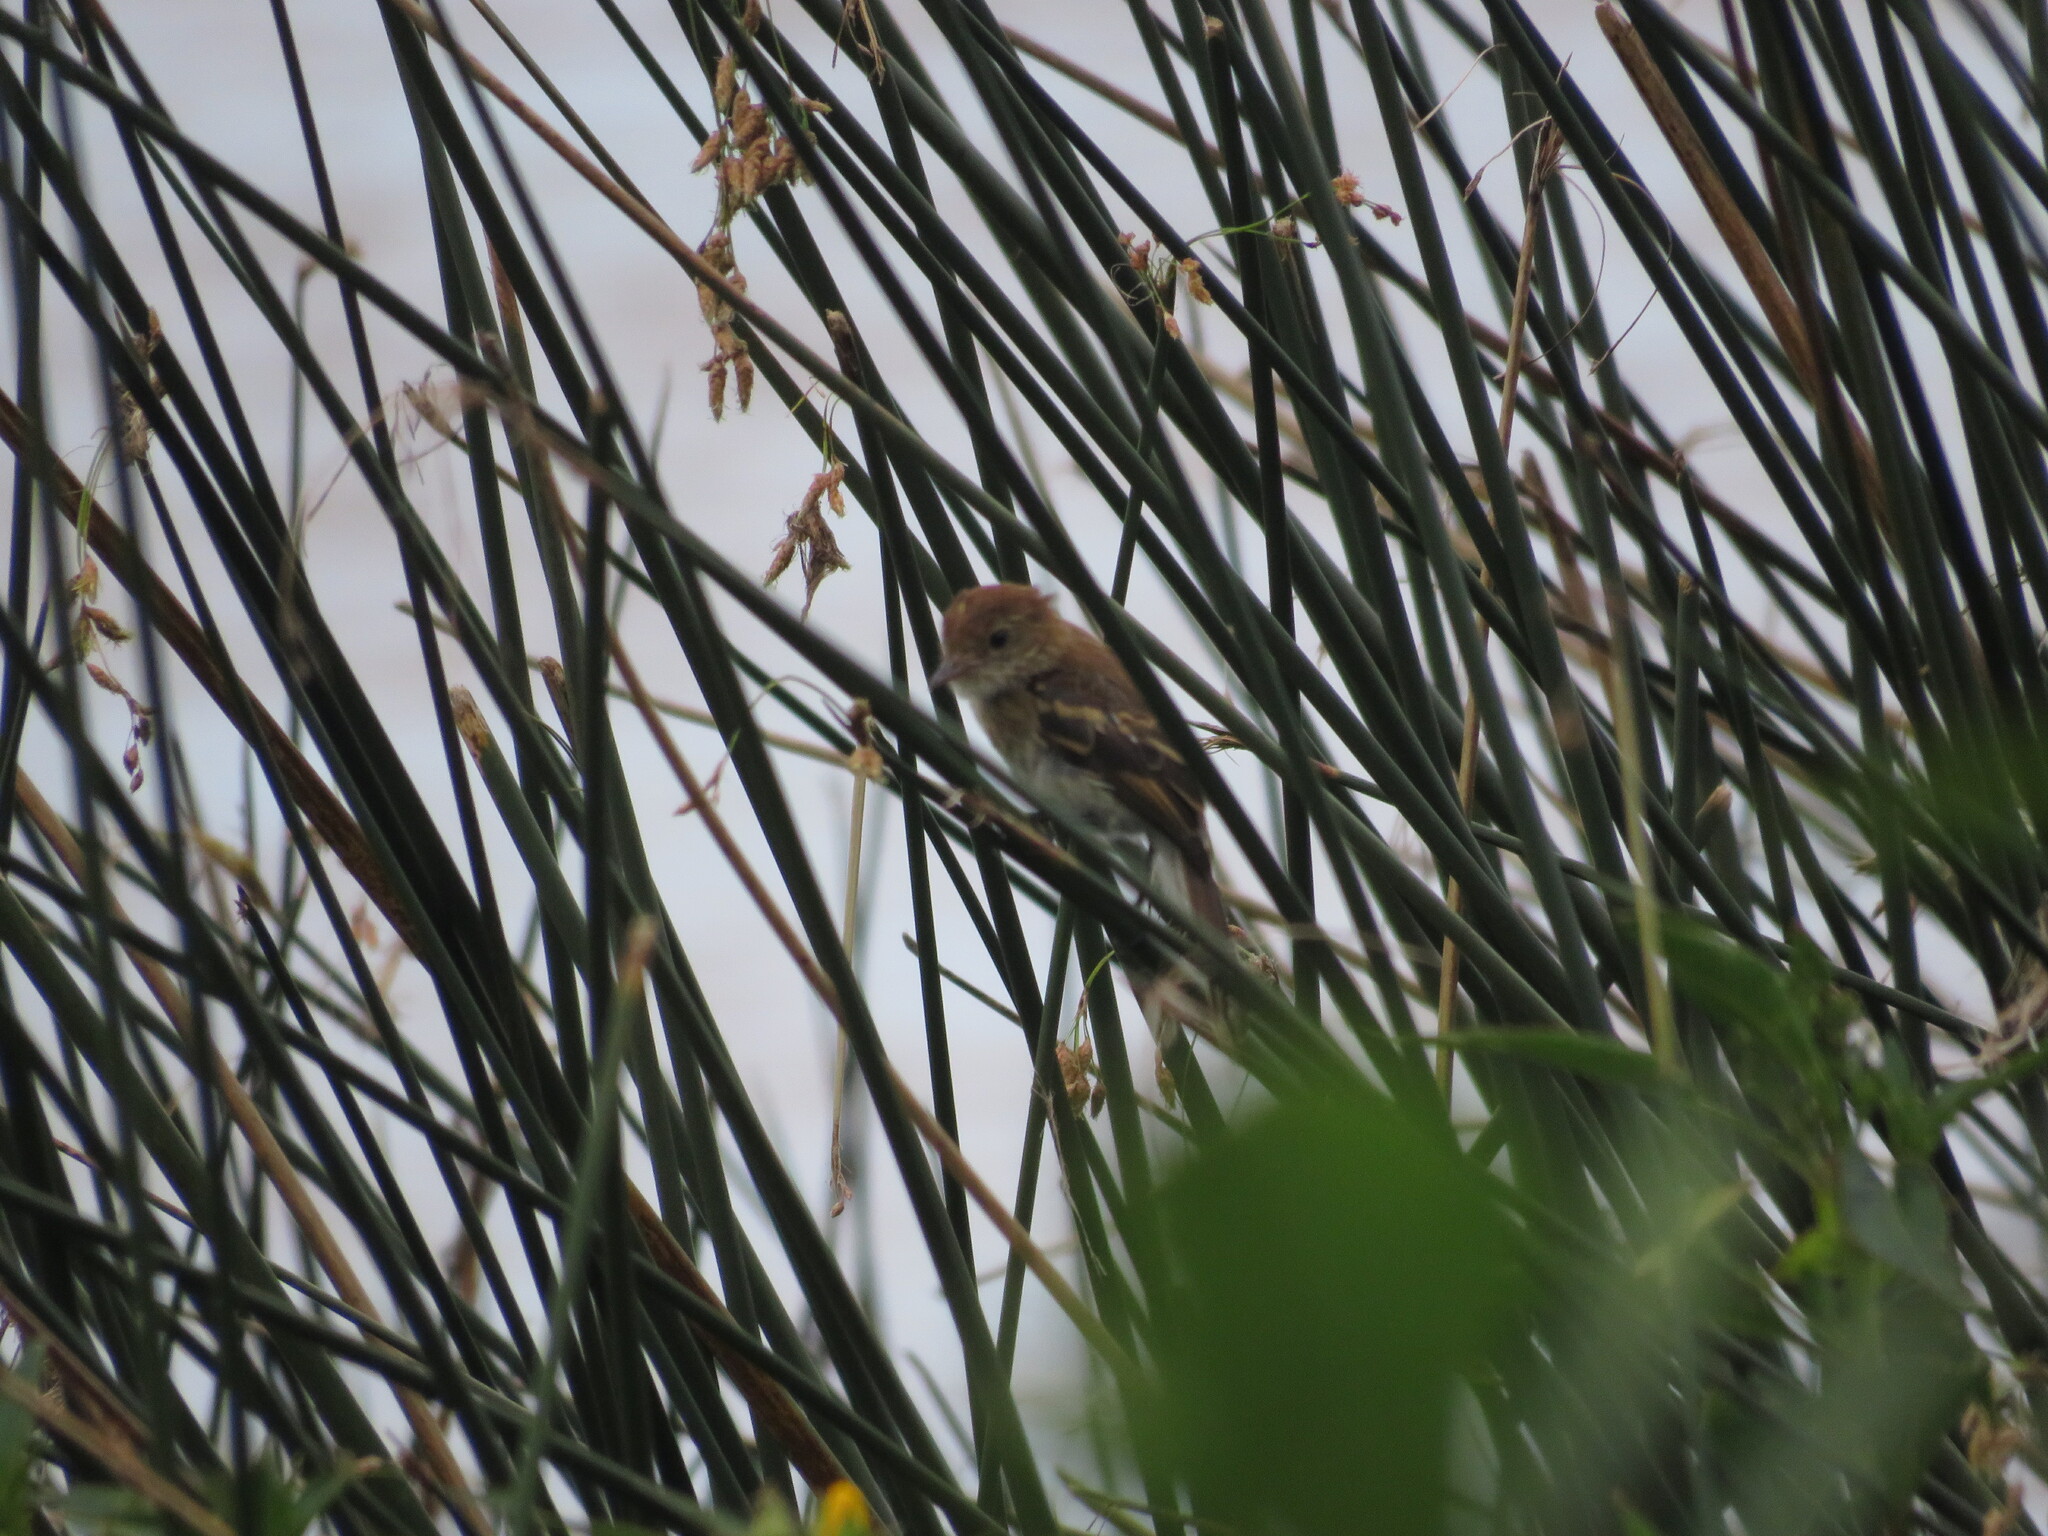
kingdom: Animalia
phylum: Chordata
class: Aves
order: Passeriformes
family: Tyrannidae
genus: Myiophobus
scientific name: Myiophobus fasciatus
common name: Bran-colored flycatcher
